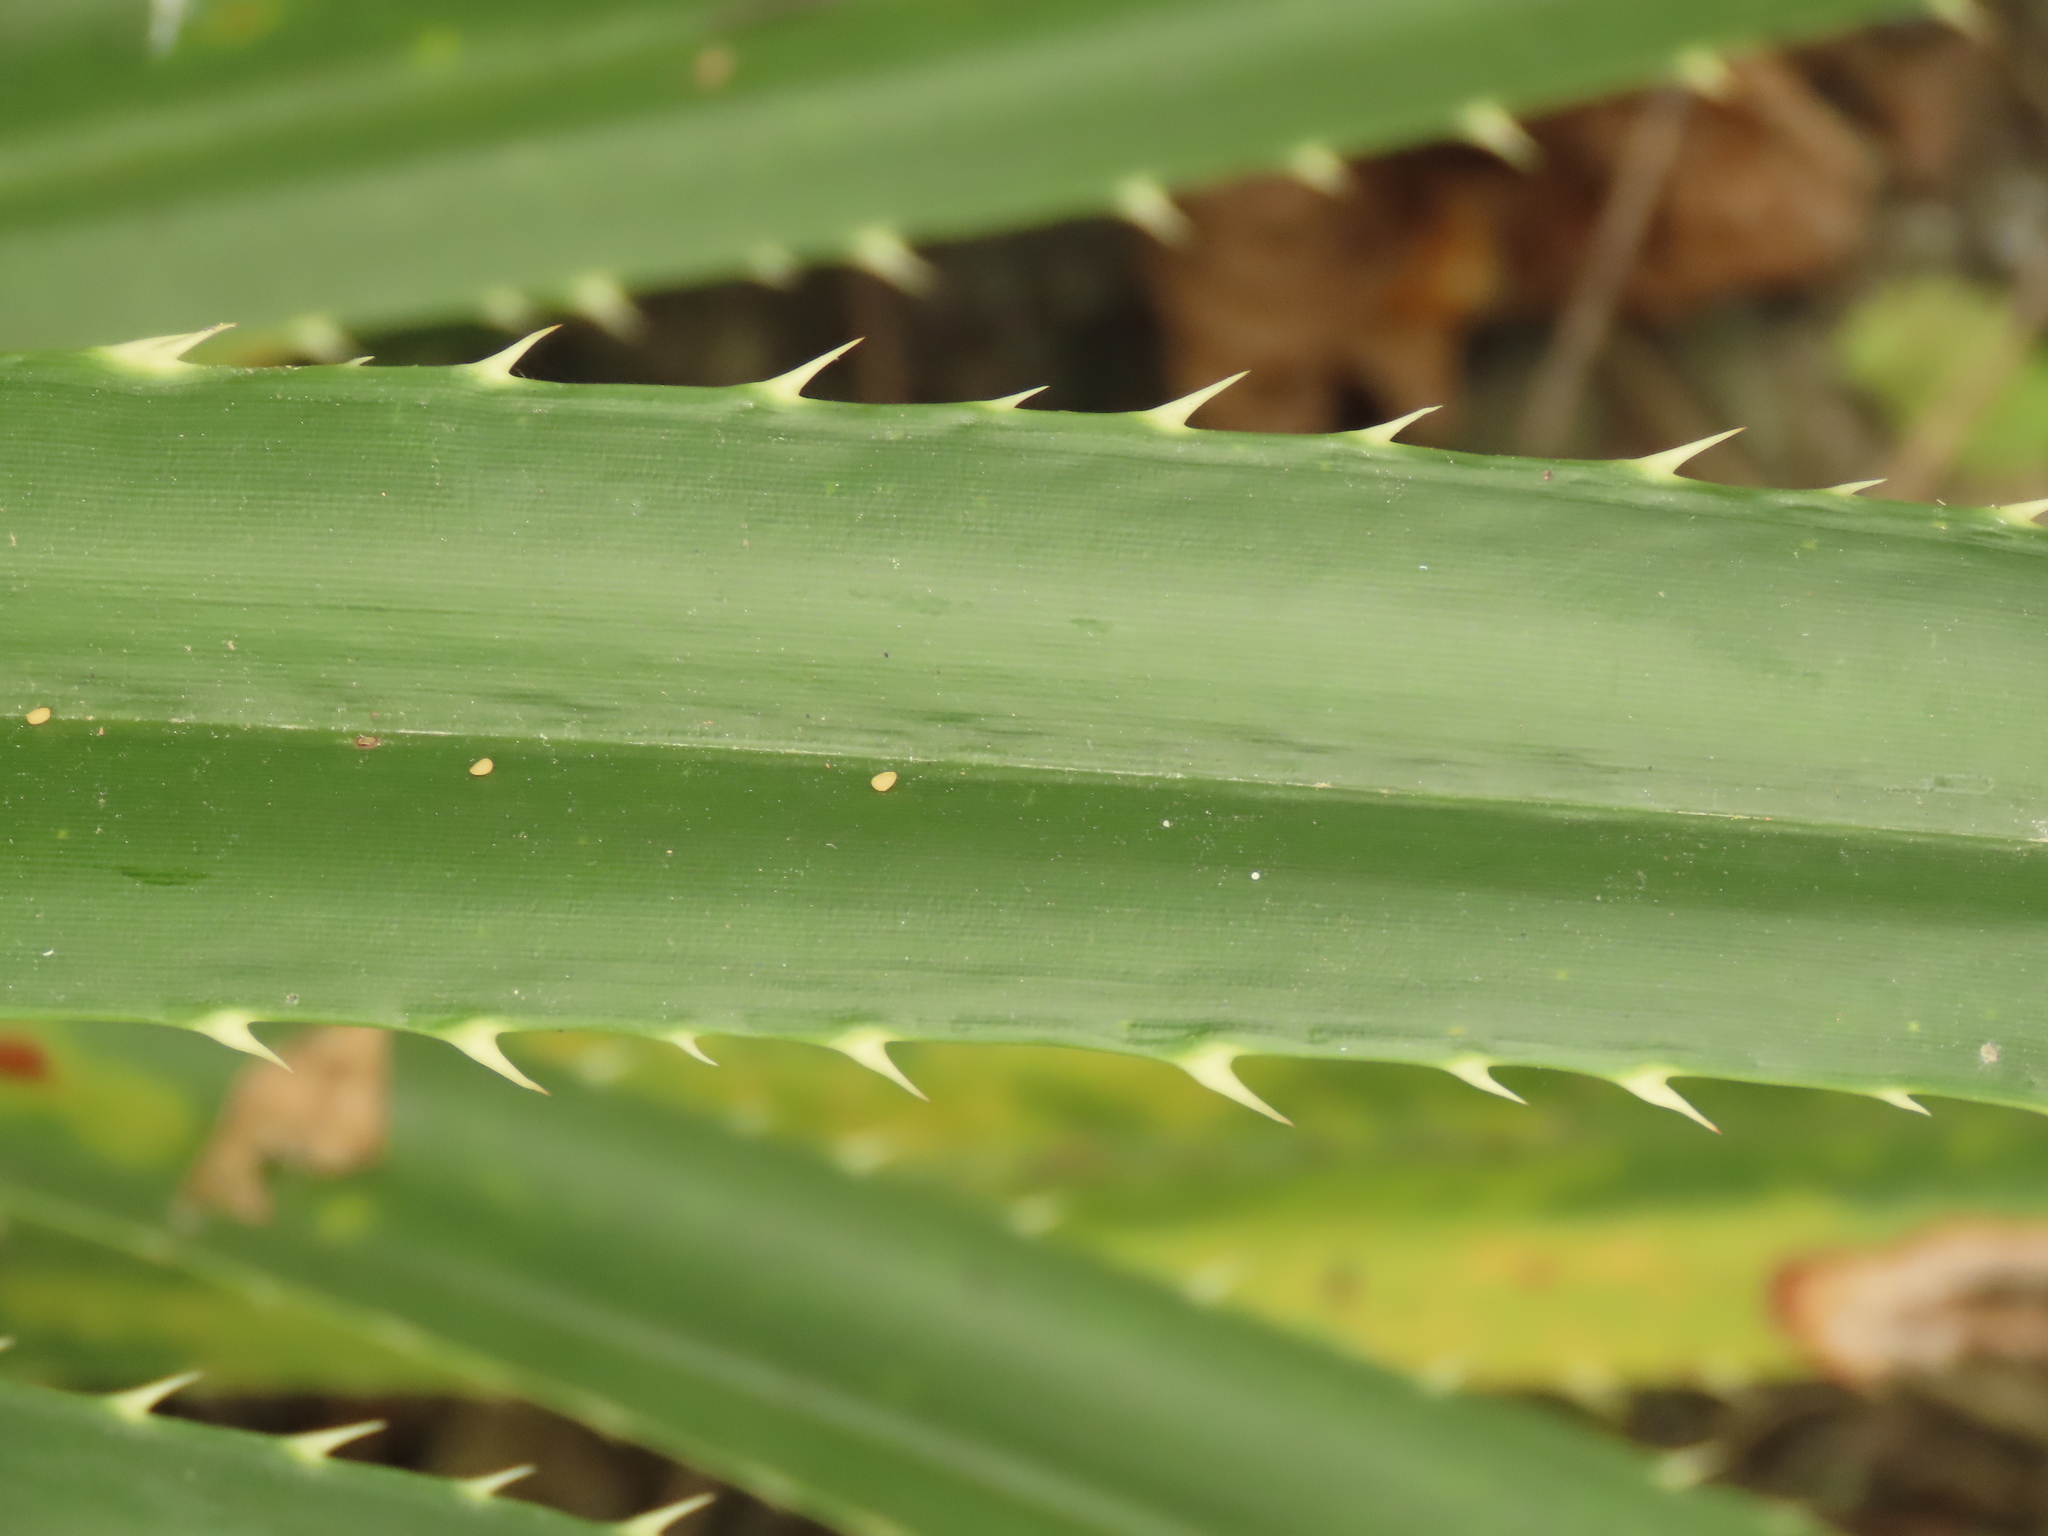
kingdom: Plantae
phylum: Tracheophyta
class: Liliopsida
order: Pandanales
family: Pandanaceae
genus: Pandanus
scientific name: Pandanus odorifer
